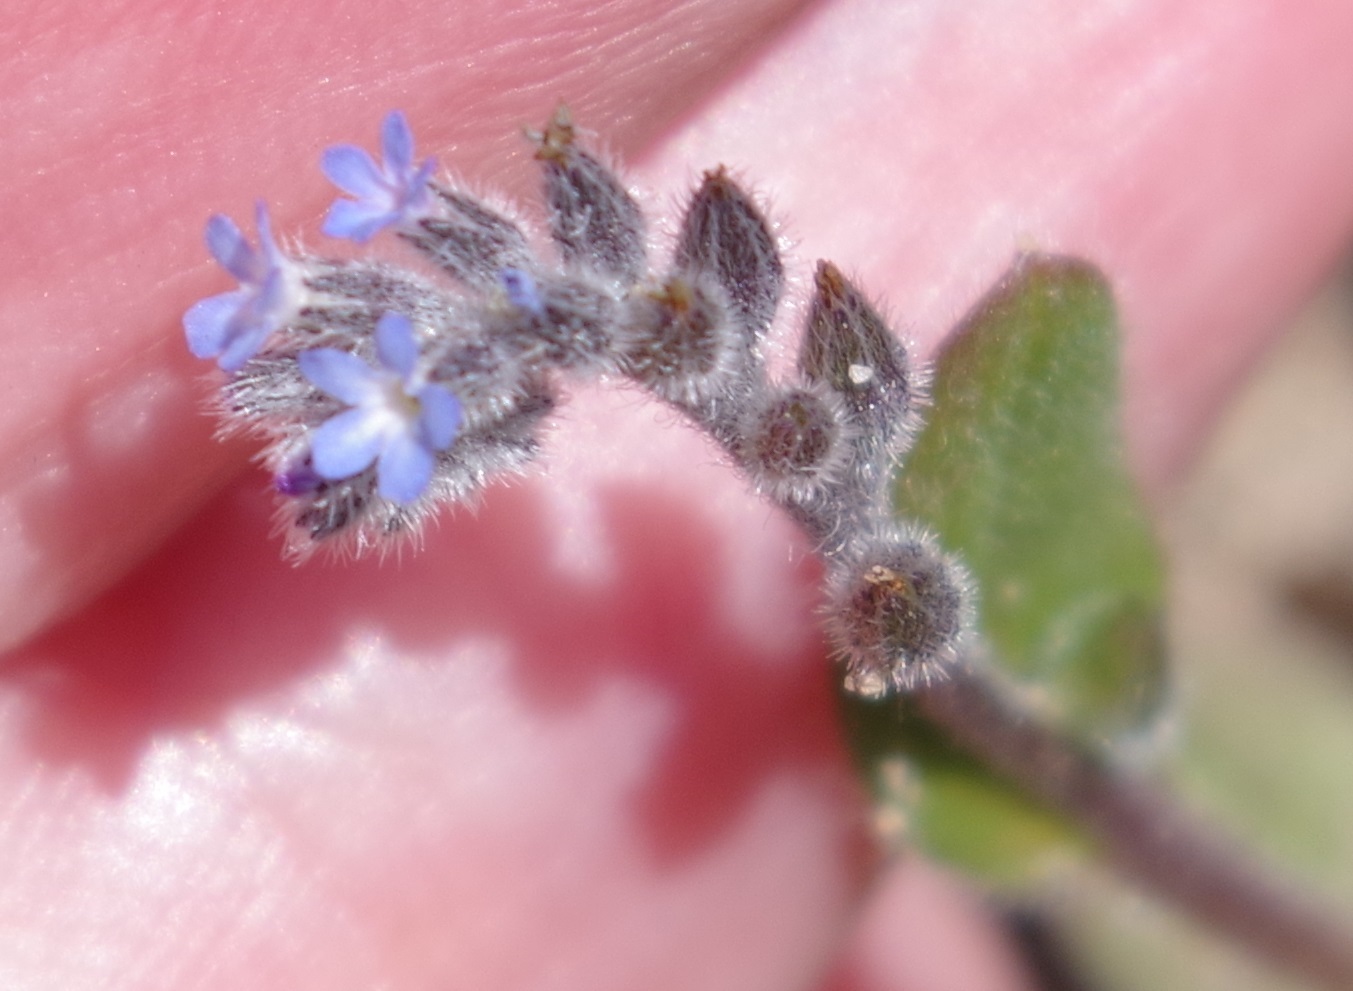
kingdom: Plantae
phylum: Tracheophyta
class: Magnoliopsida
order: Boraginales
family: Boraginaceae
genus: Myosotis
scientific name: Myosotis stricta
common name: Strict forget-me-not
